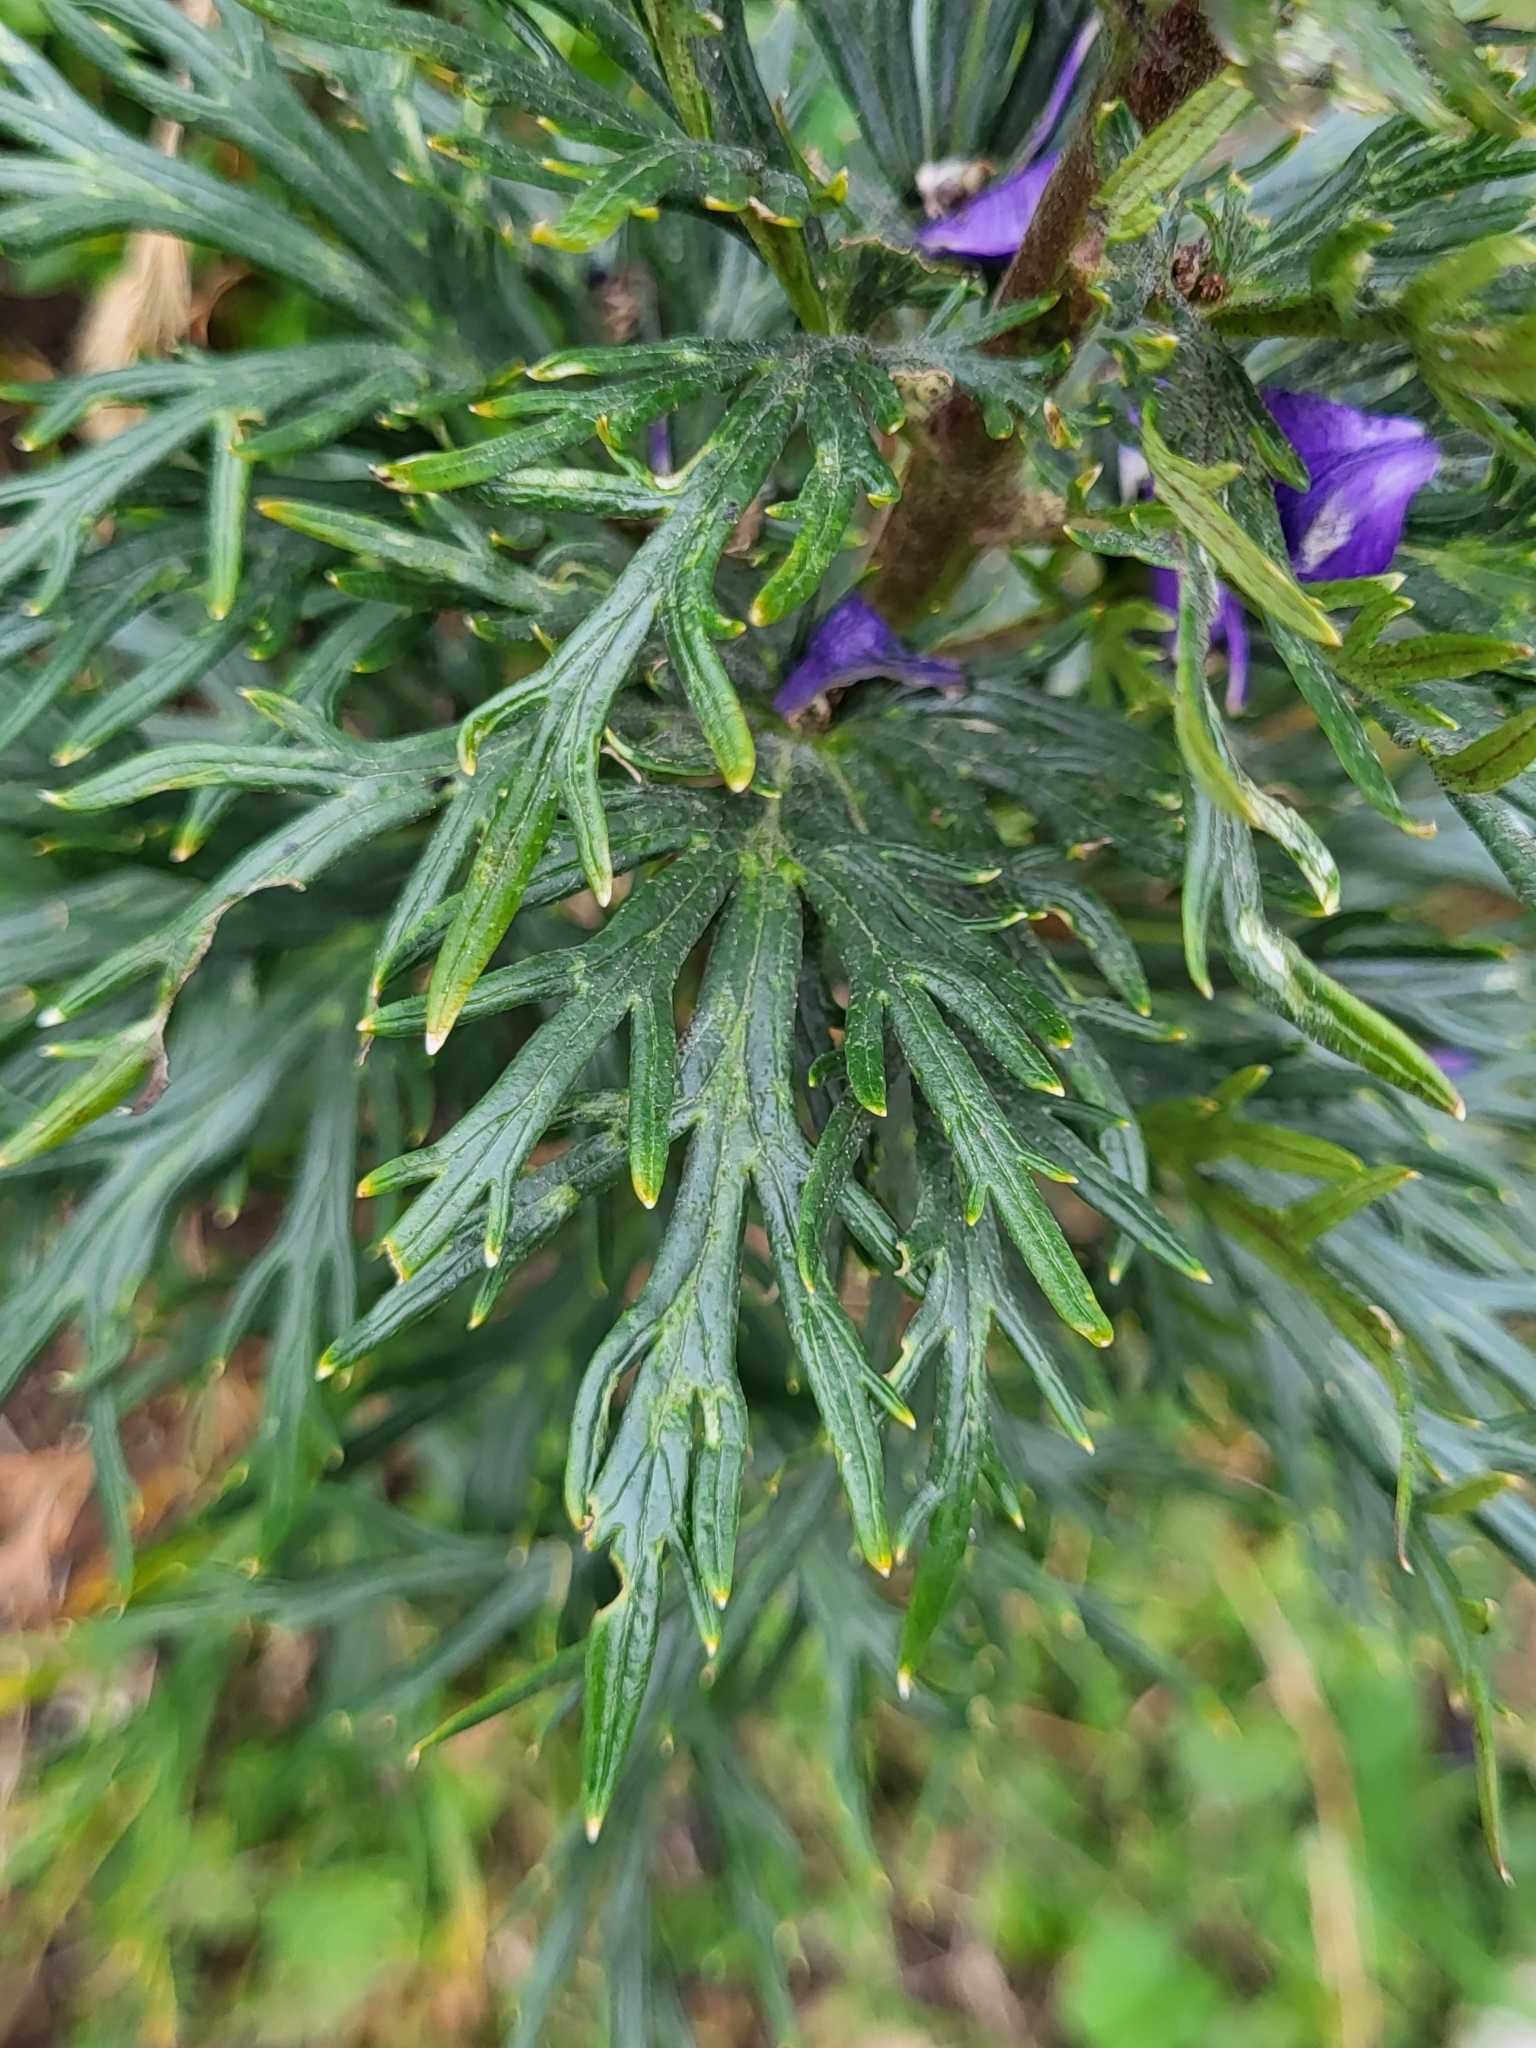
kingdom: Plantae
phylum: Tracheophyta
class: Magnoliopsida
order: Ranunculales
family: Ranunculaceae
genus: Aconitum
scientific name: Aconitum napellus
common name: Garden monkshood
